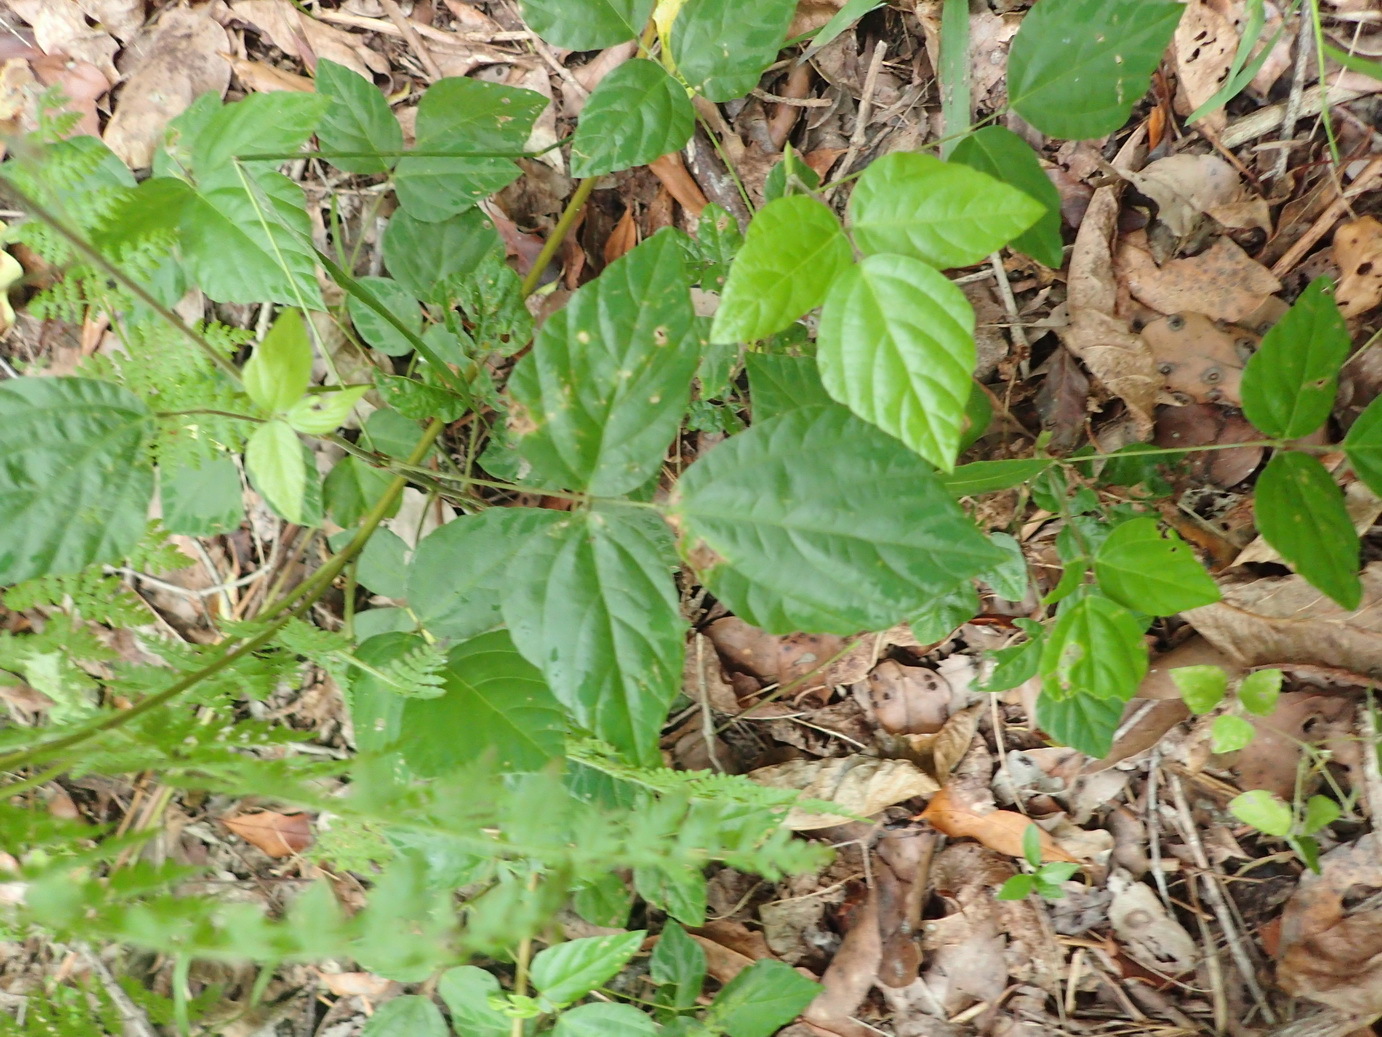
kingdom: Plantae
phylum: Tracheophyta
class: Magnoliopsida
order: Fabales
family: Fabaceae
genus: Hylodesmum
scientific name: Hylodesmum repandum
